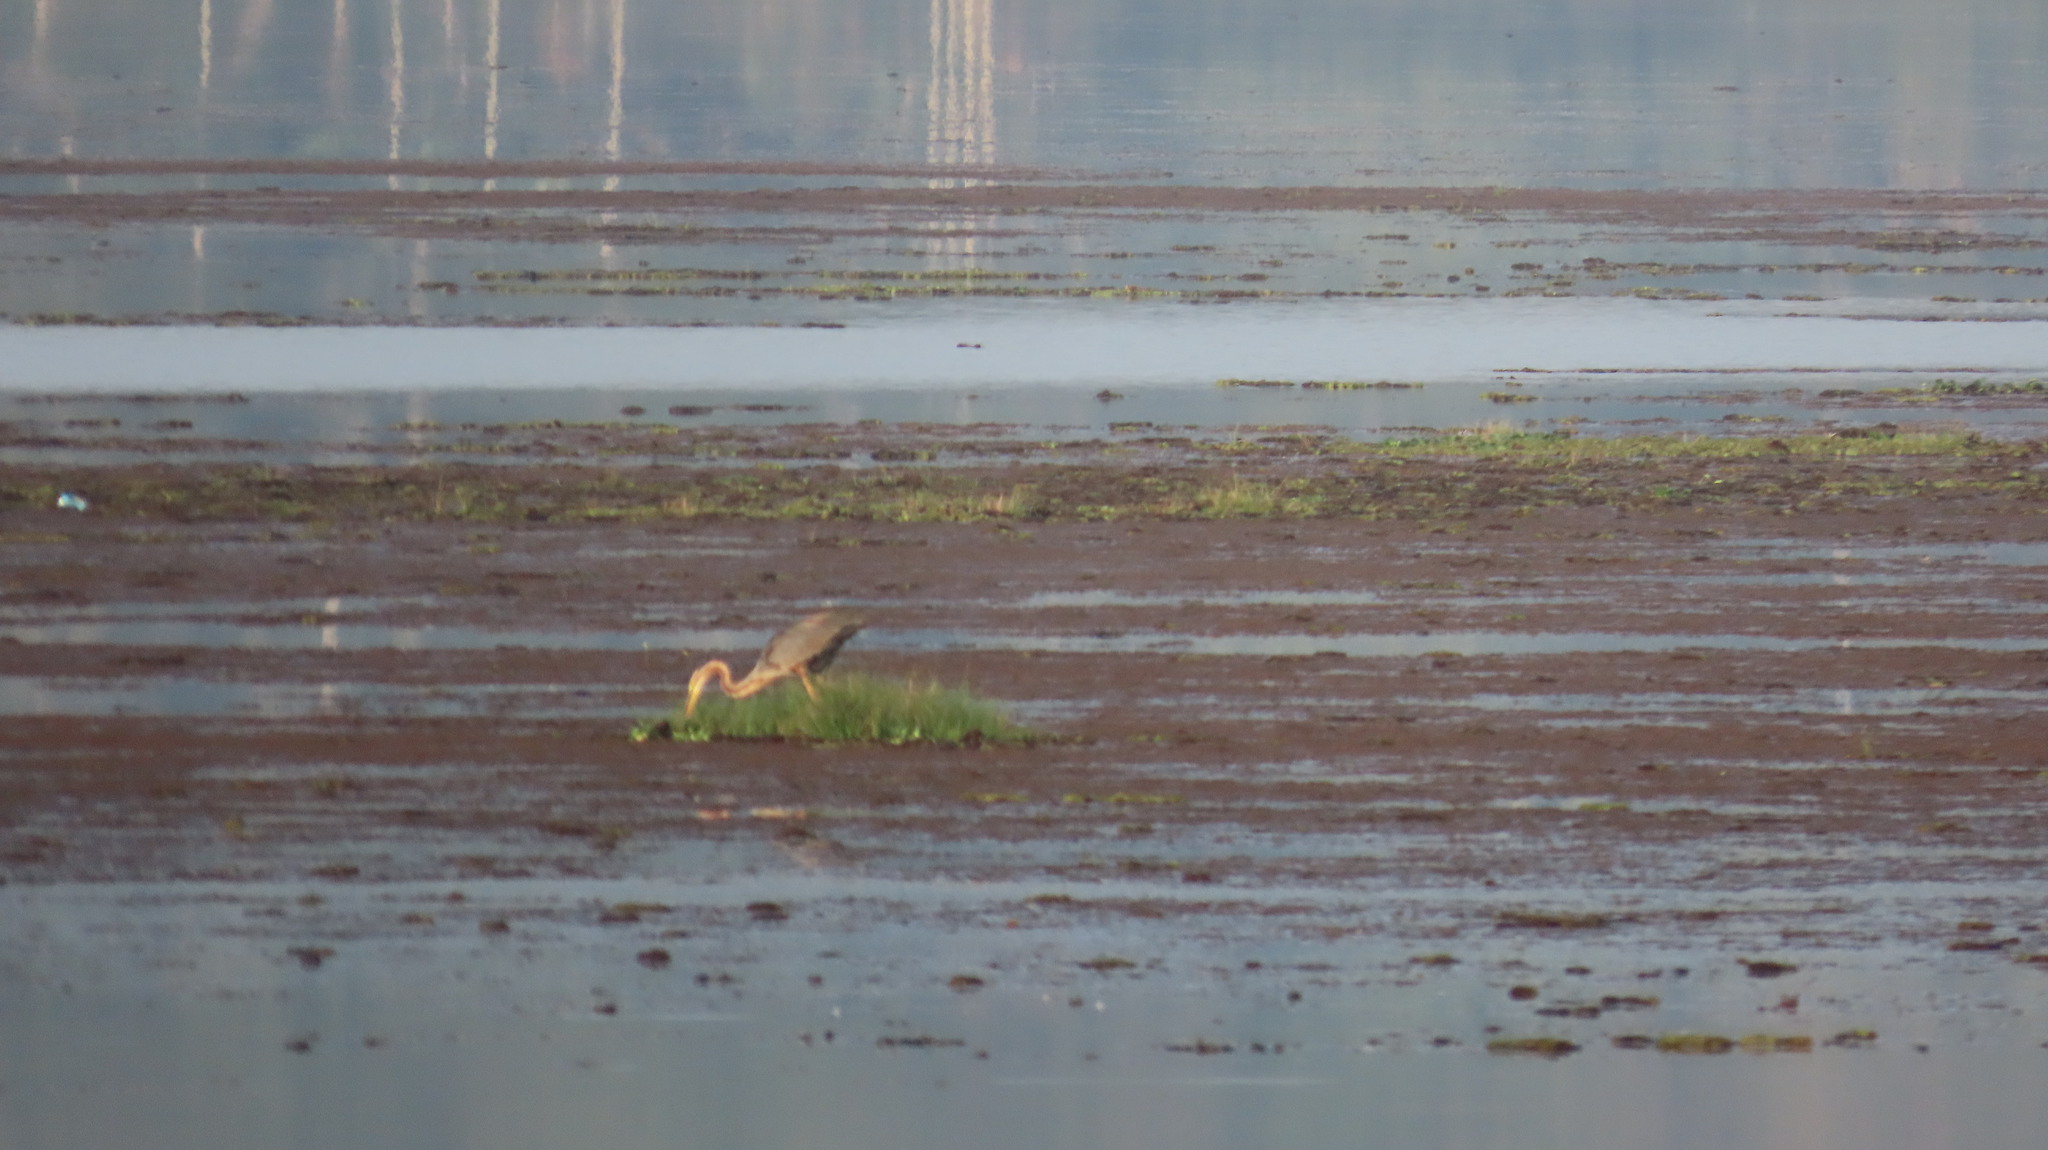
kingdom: Animalia
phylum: Chordata
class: Aves
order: Pelecaniformes
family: Ardeidae
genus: Ardea
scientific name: Ardea purpurea
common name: Purple heron
